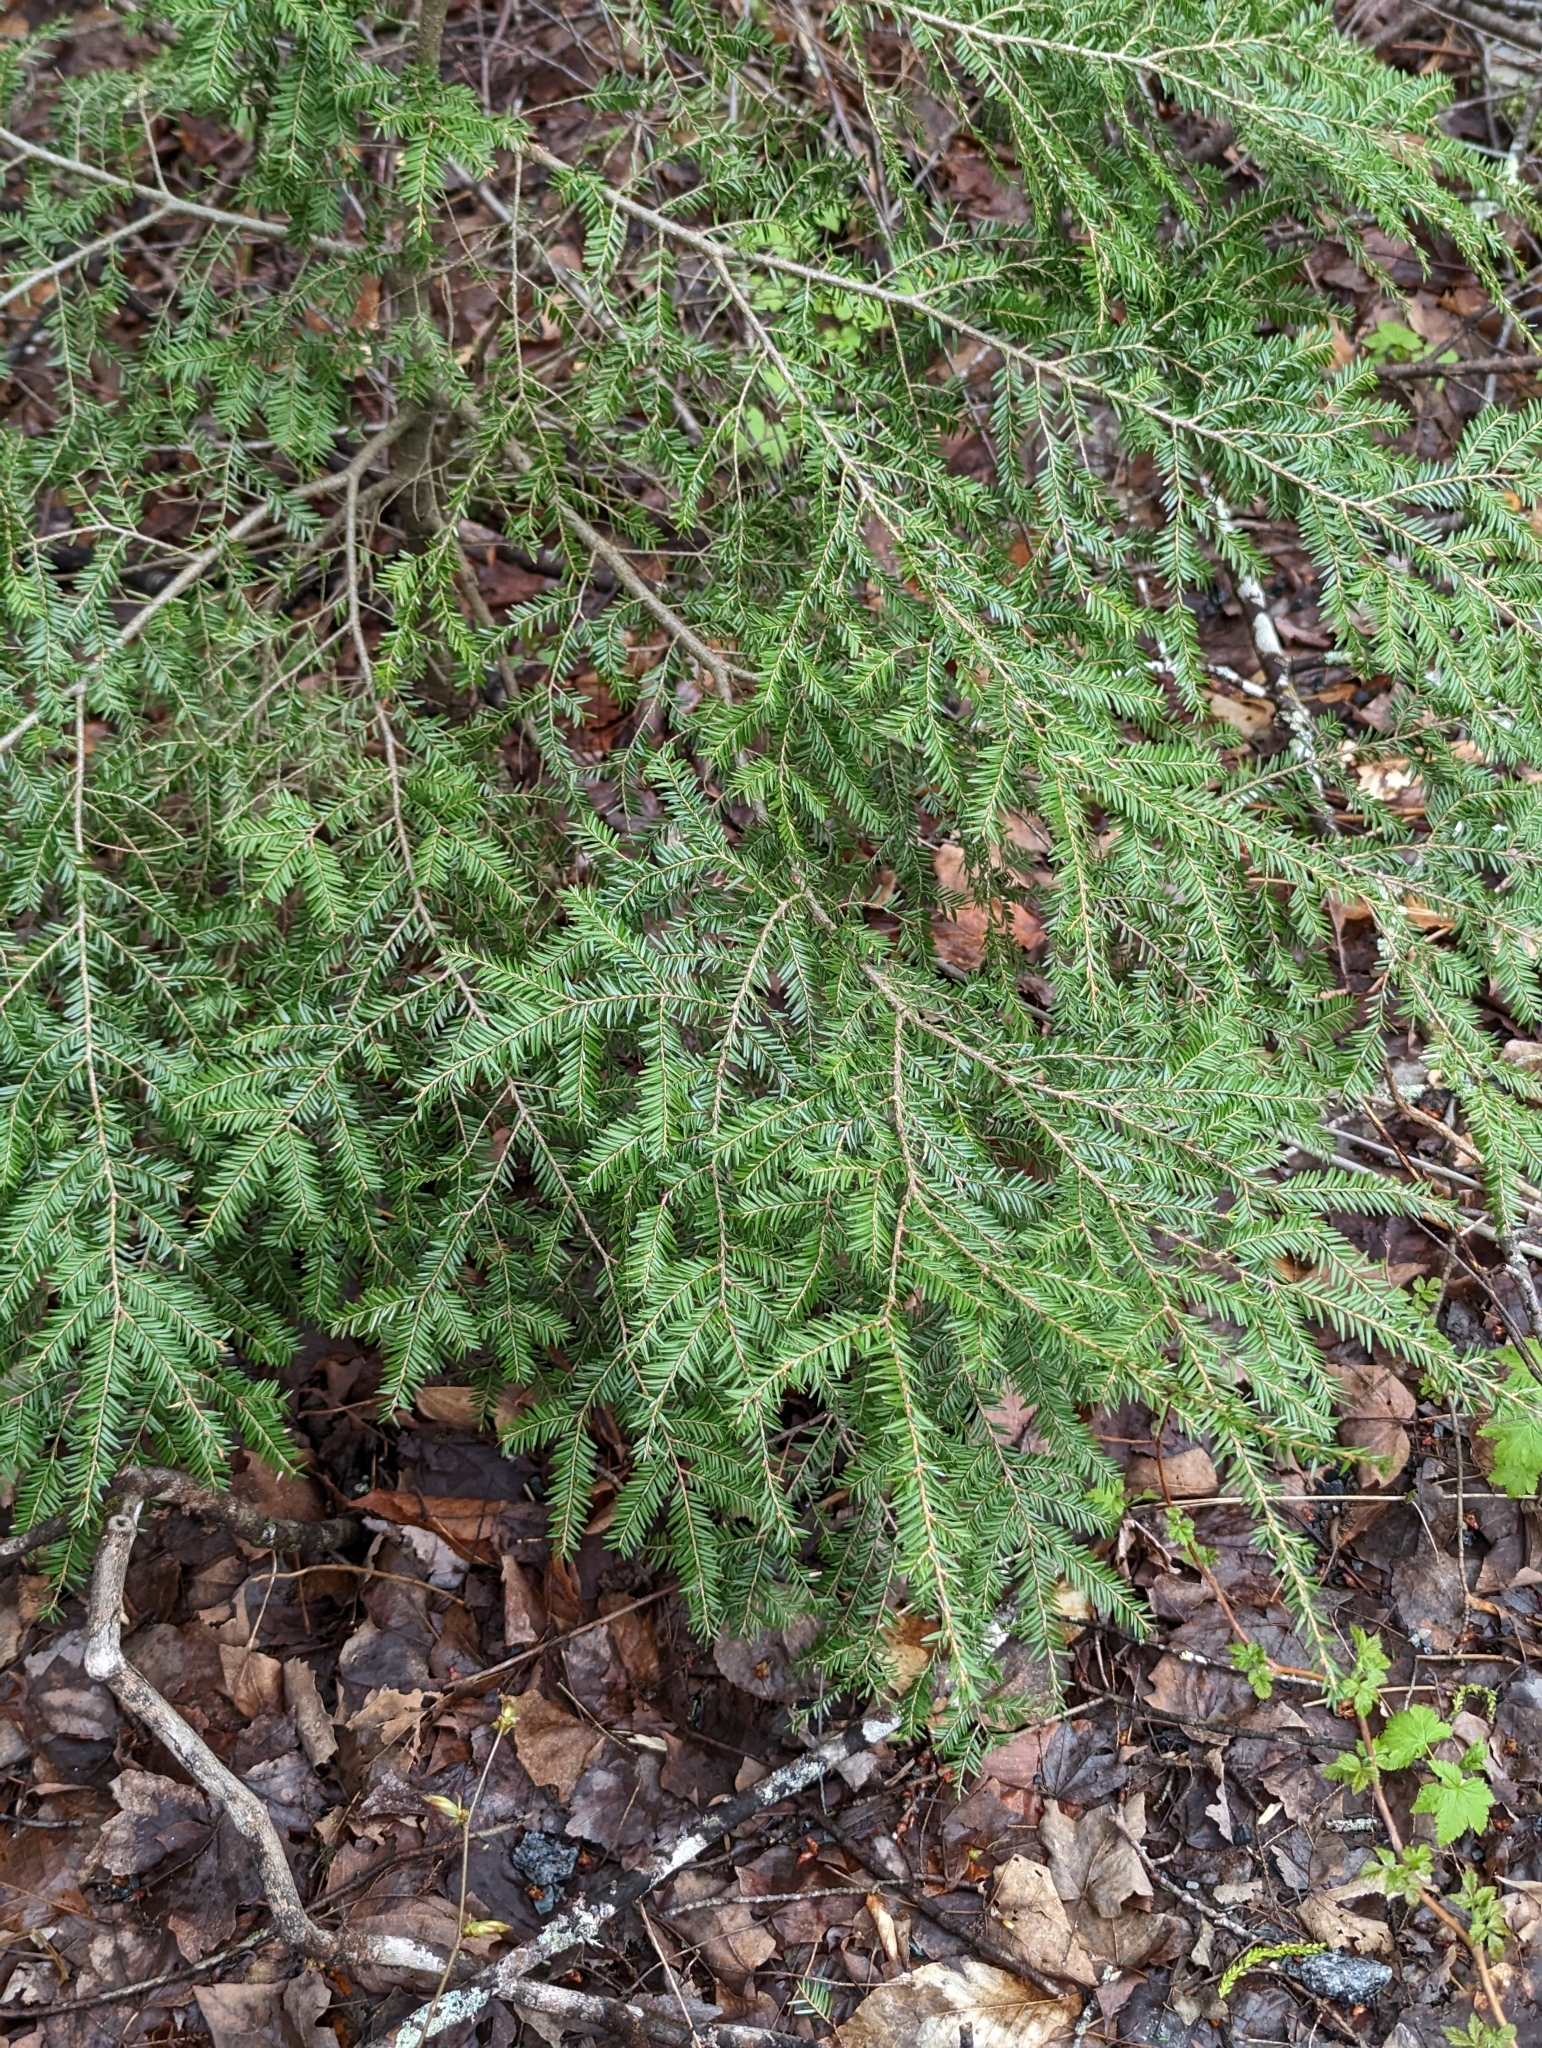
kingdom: Plantae
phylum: Tracheophyta
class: Pinopsida
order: Pinales
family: Pinaceae
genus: Tsuga
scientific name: Tsuga canadensis
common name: Eastern hemlock
